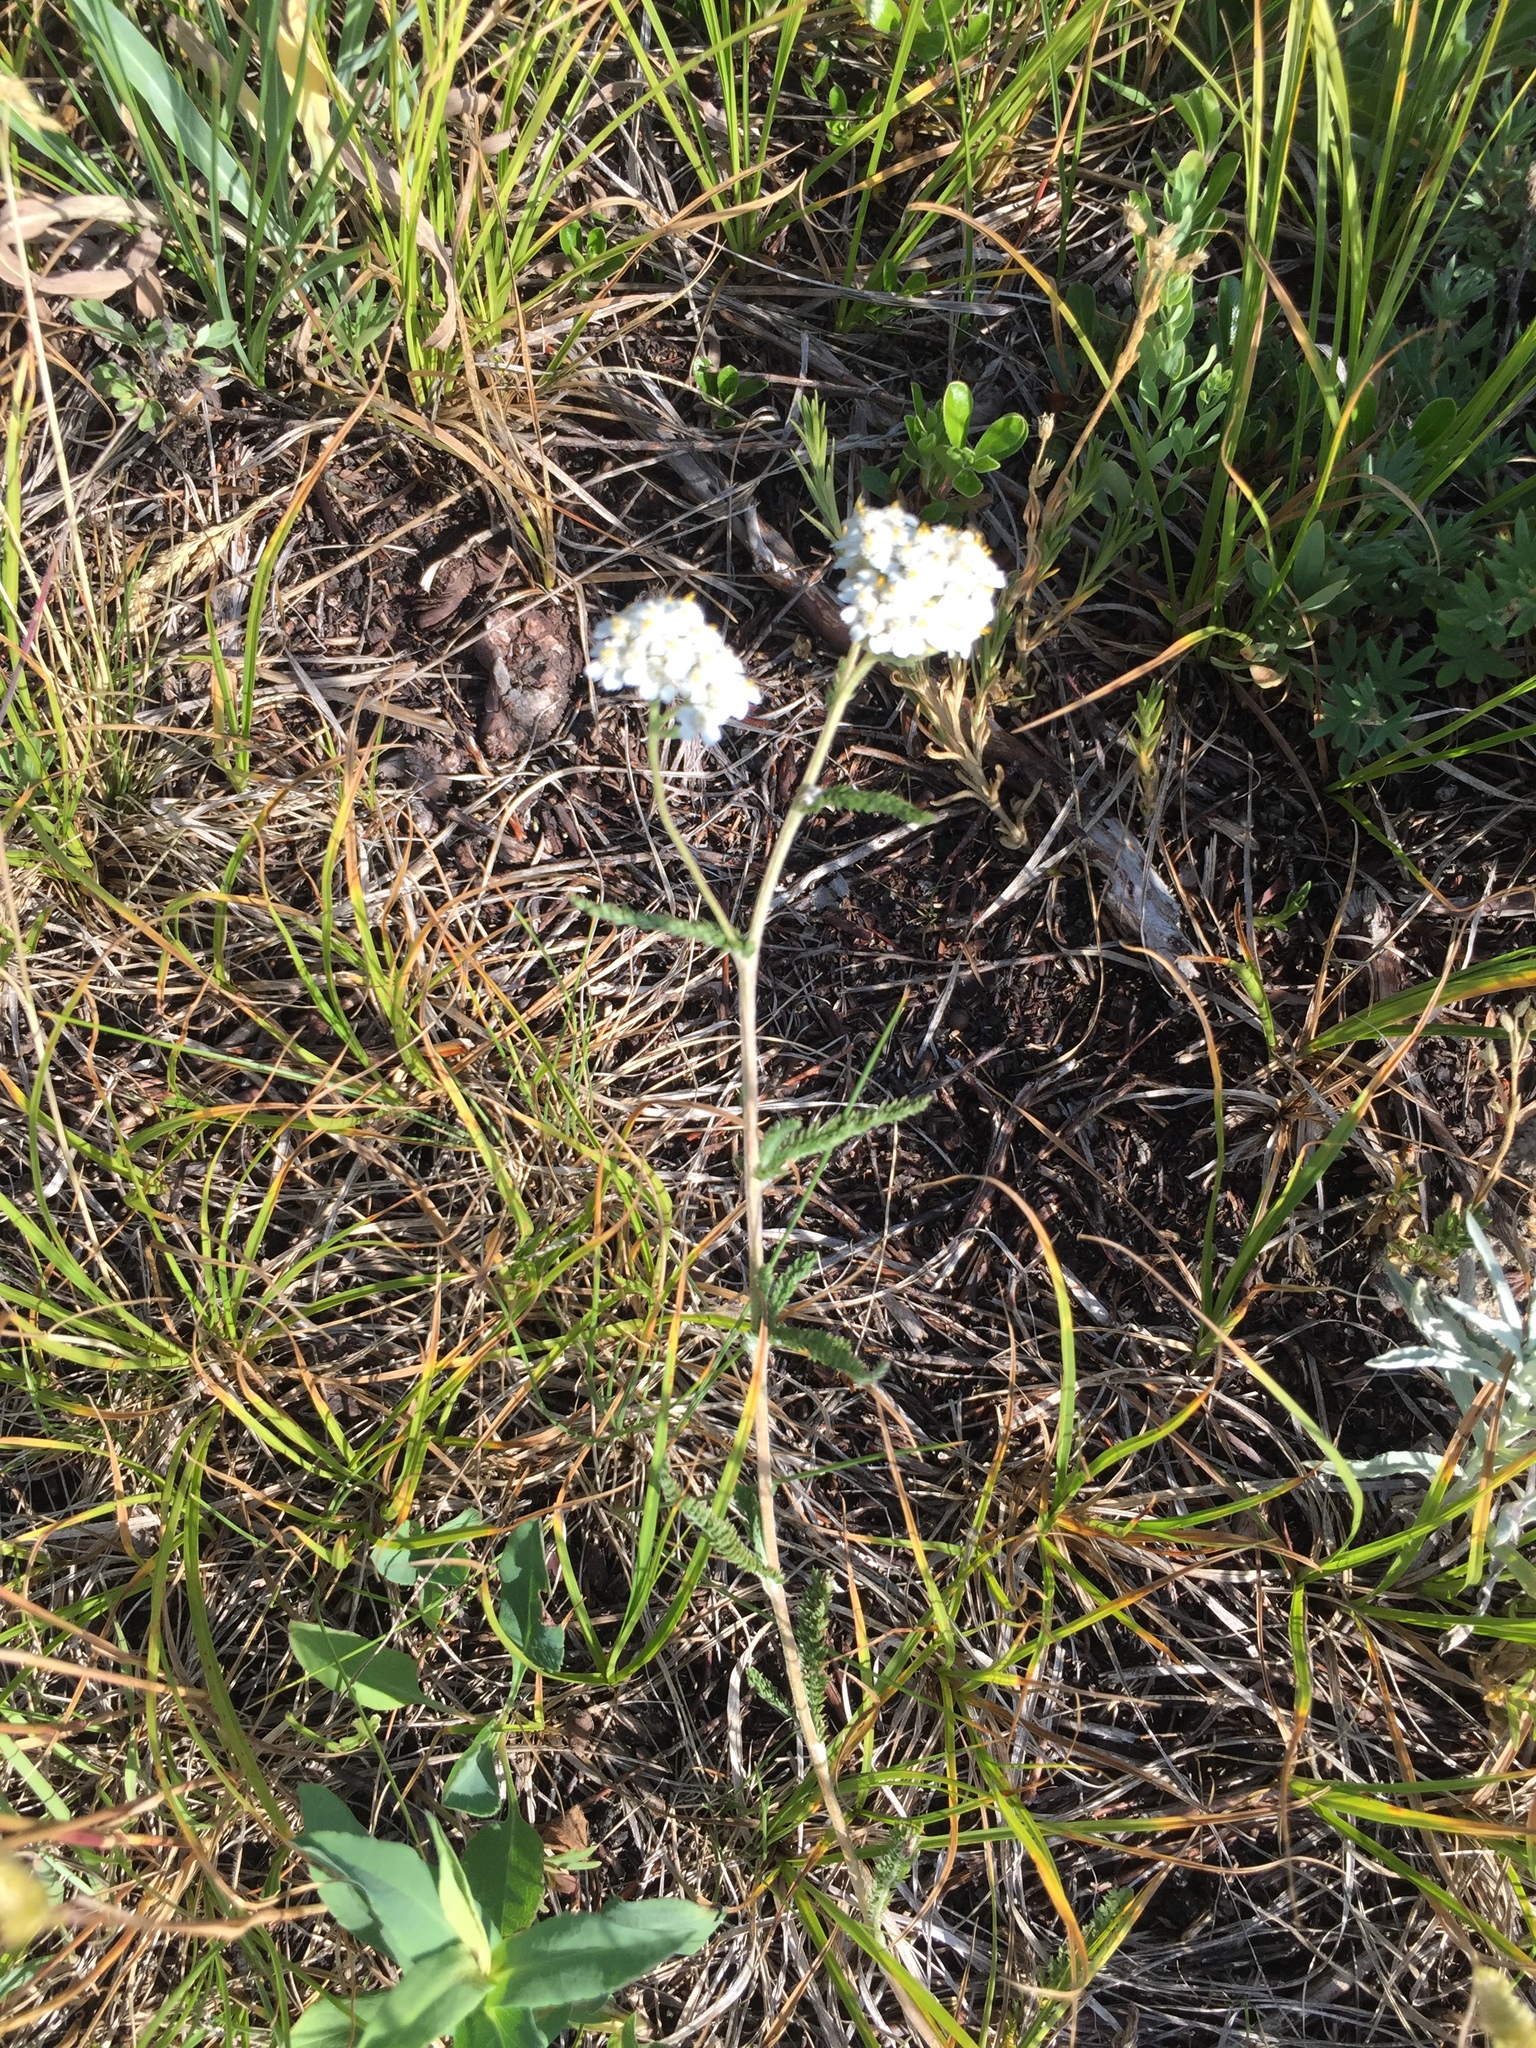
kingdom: Plantae
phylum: Tracheophyta
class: Magnoliopsida
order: Asterales
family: Asteraceae
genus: Achillea
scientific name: Achillea millefolium
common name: Yarrow
